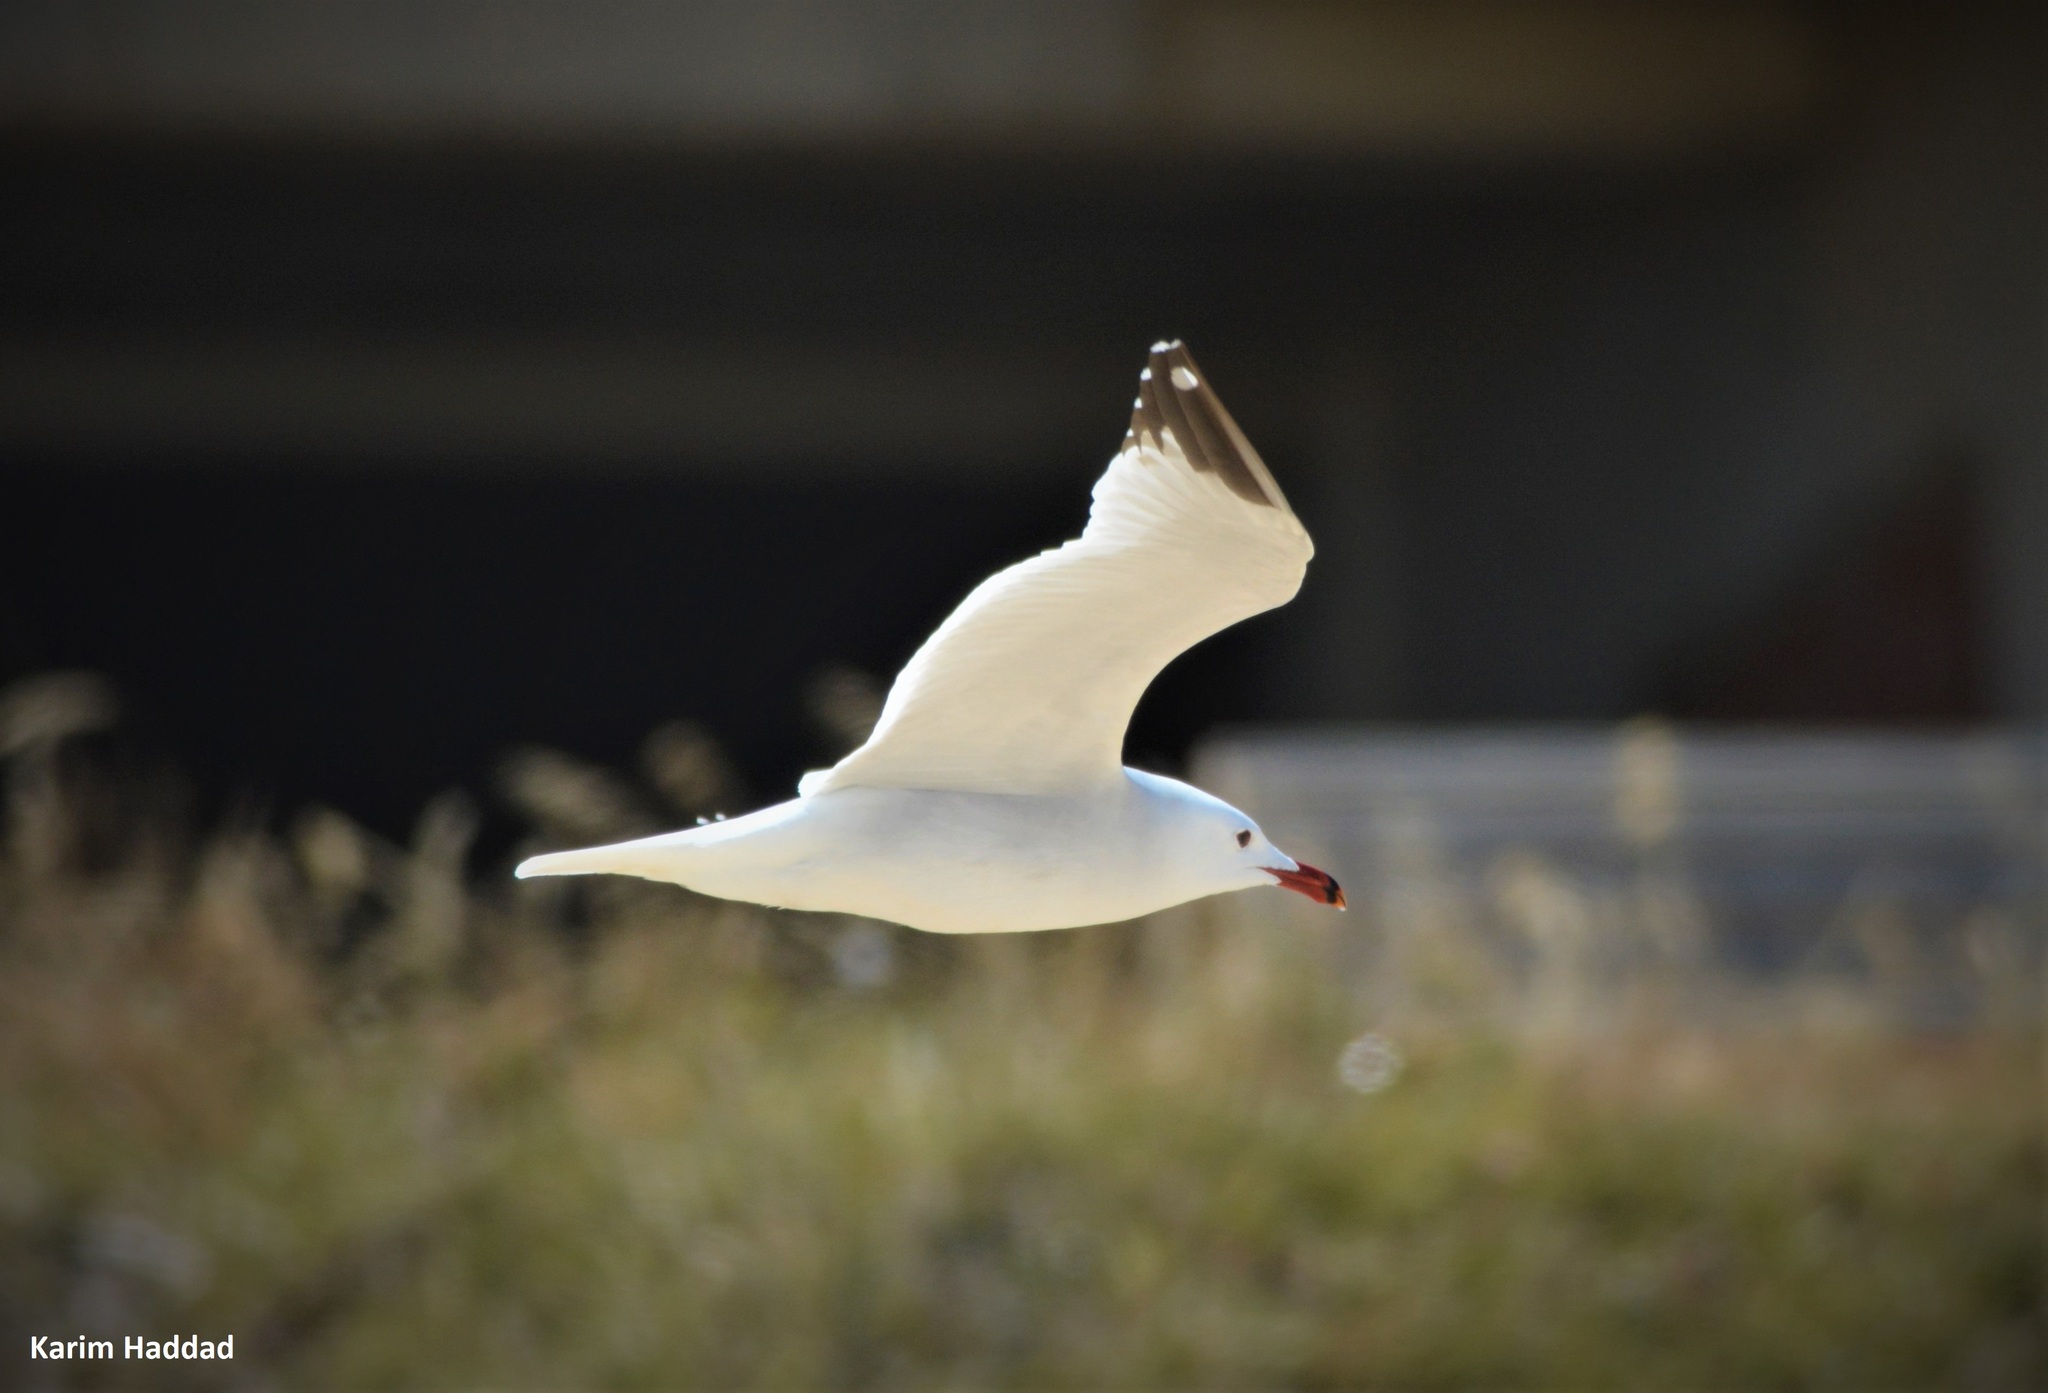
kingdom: Animalia
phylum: Chordata
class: Aves
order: Charadriiformes
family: Laridae
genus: Ichthyaetus
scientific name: Ichthyaetus audouinii
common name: Audouin's gull
